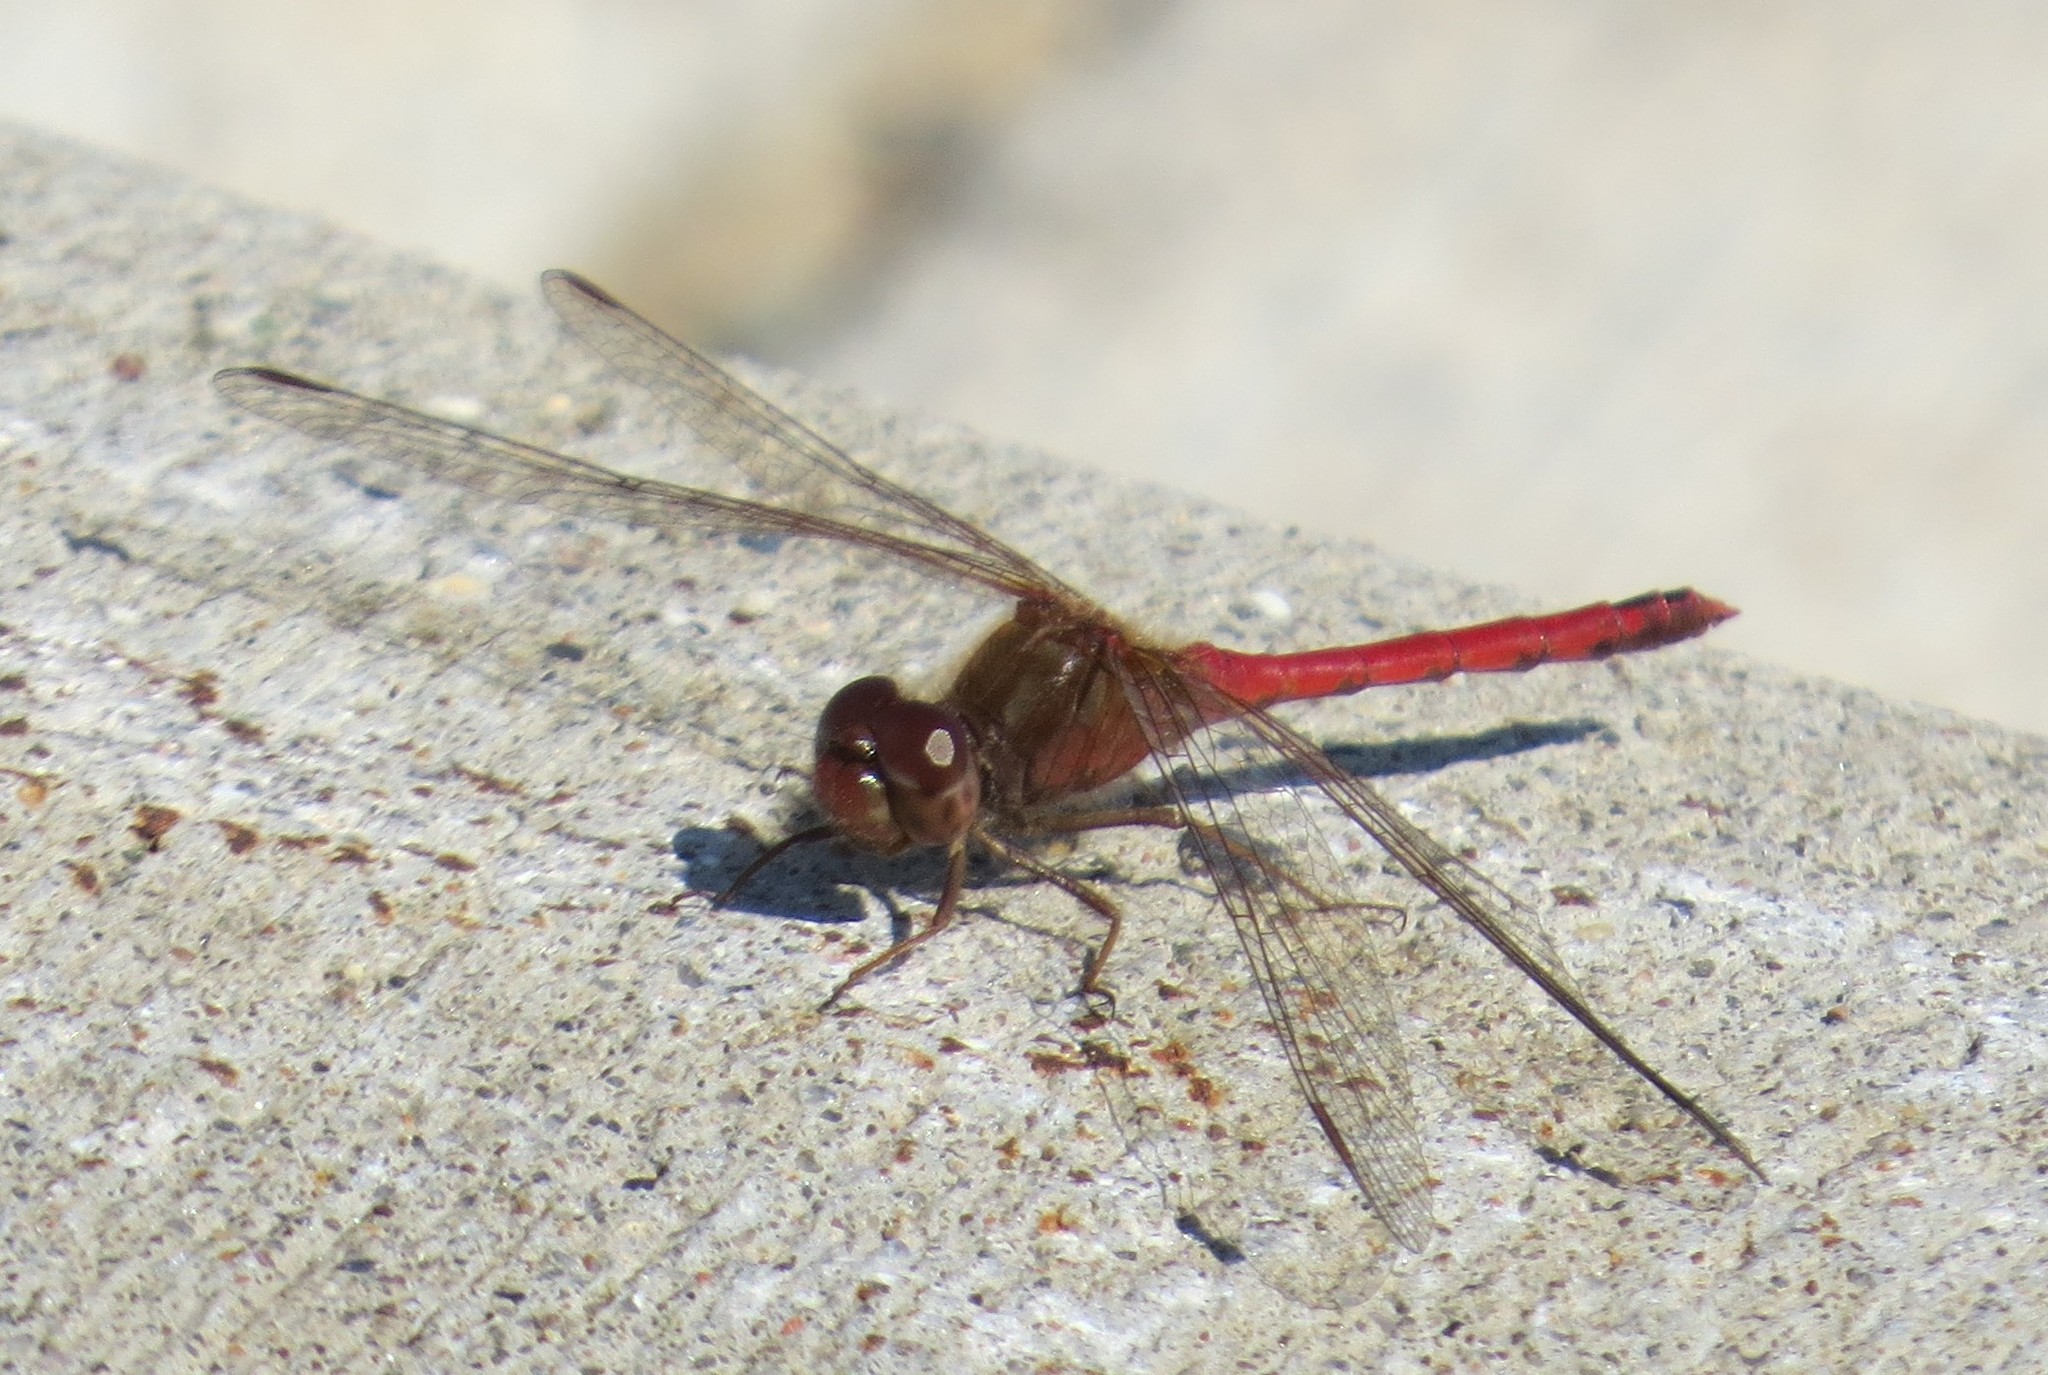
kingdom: Animalia
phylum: Arthropoda
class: Insecta
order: Odonata
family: Libellulidae
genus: Sympetrum
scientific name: Sympetrum vicinum
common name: Autumn meadowhawk
